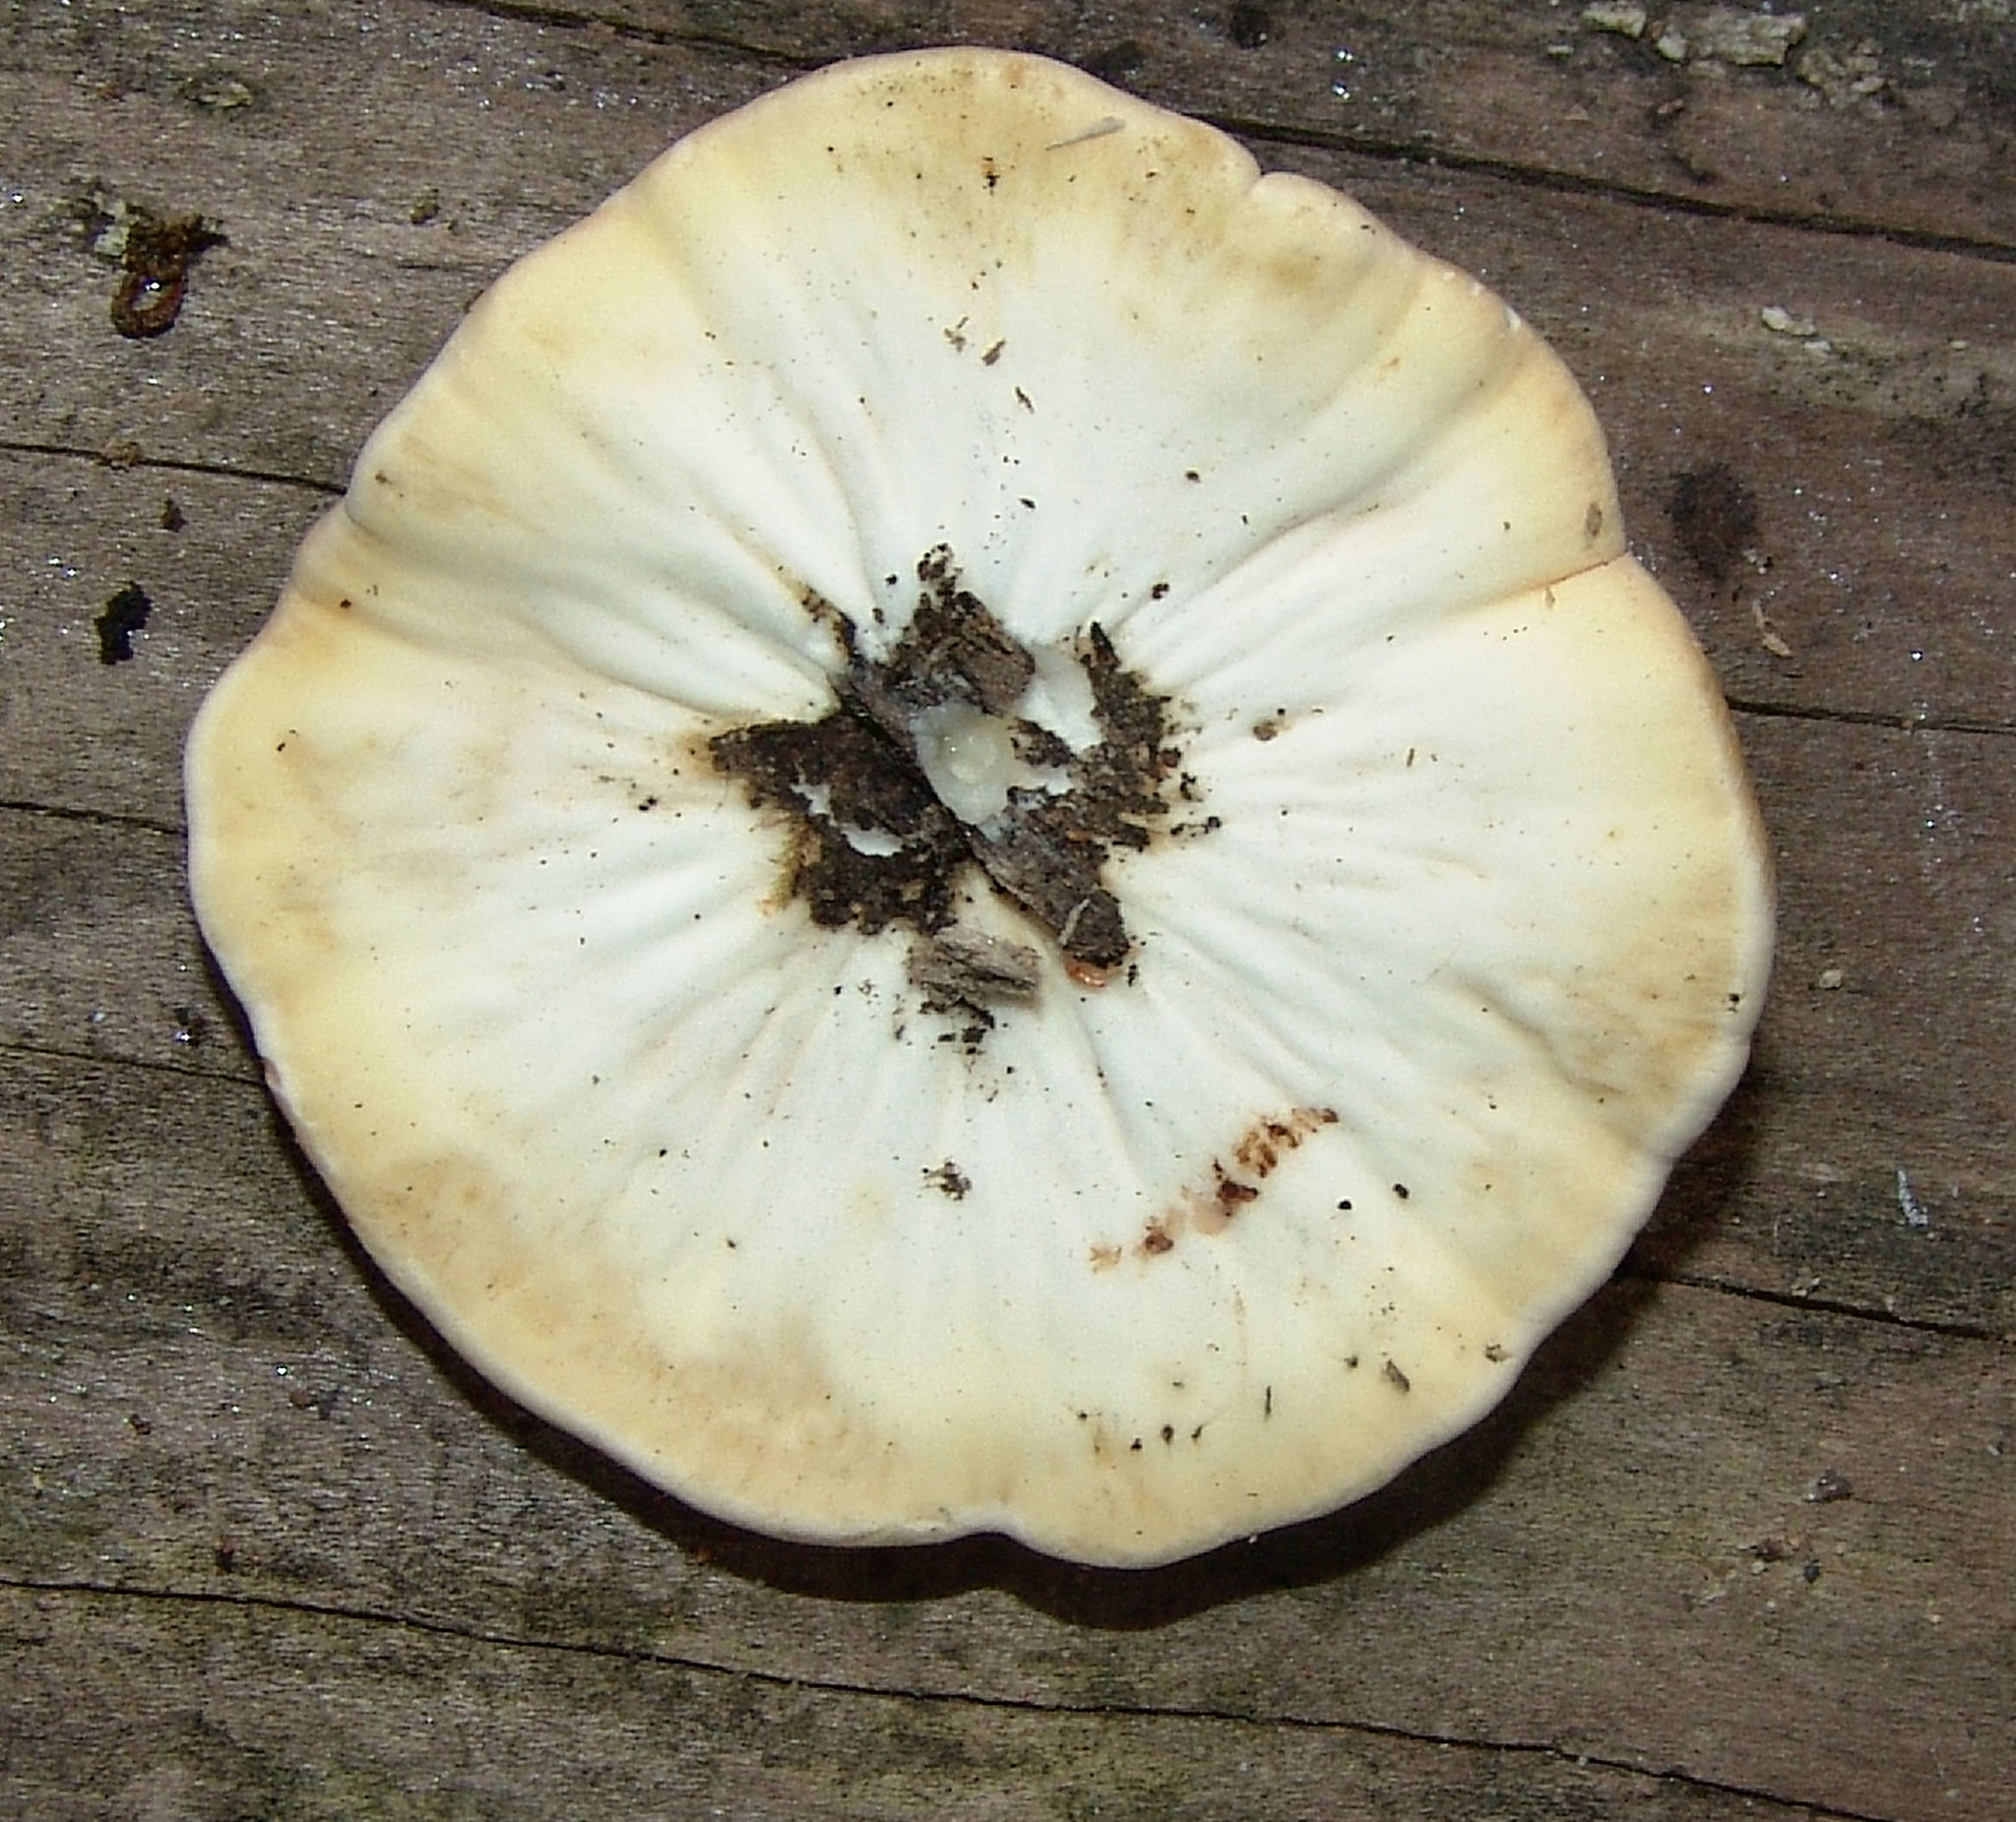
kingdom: Fungi
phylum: Ascomycota
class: Sordariomycetes
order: Hypocreales
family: Hypocreaceae
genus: Trichoderma
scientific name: Trichoderma peltatum
